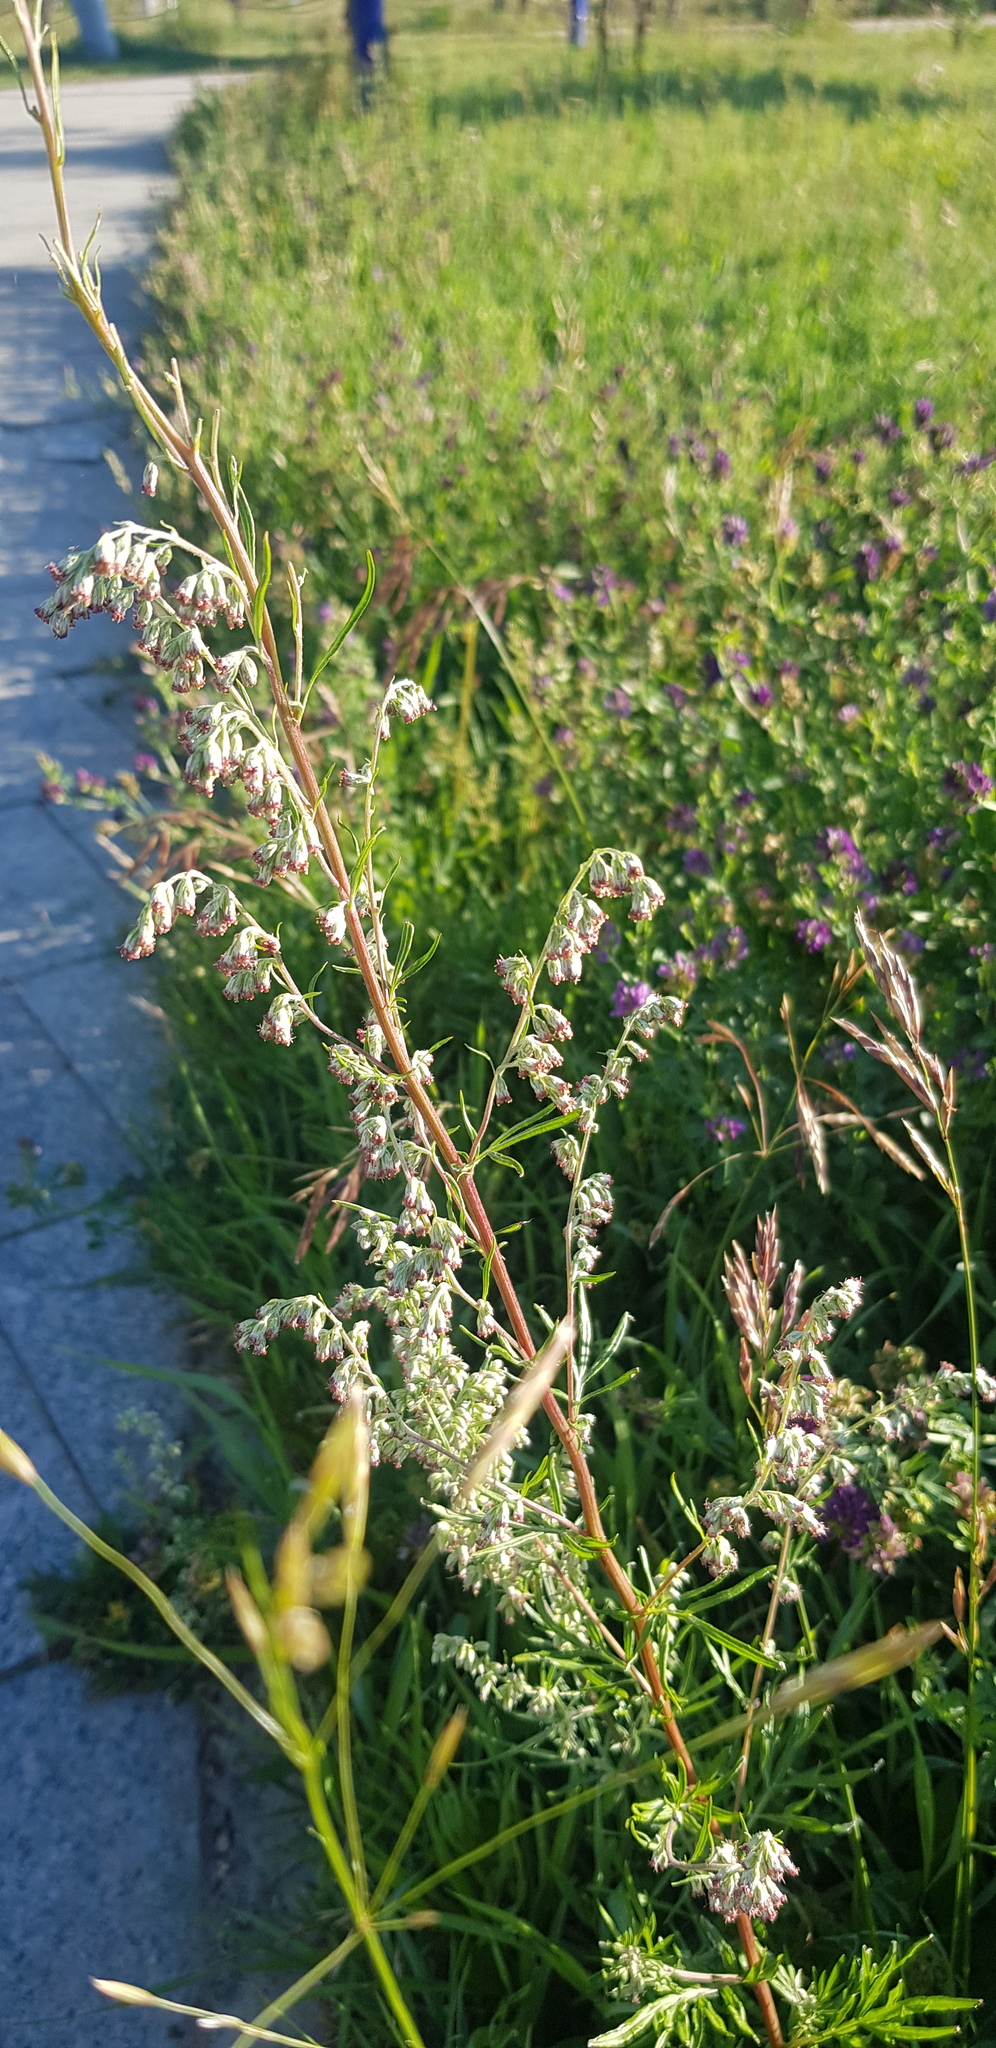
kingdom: Plantae
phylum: Tracheophyta
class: Magnoliopsida
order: Asterales
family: Asteraceae
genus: Artemisia
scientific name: Artemisia vulgaris
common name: Mugwort
